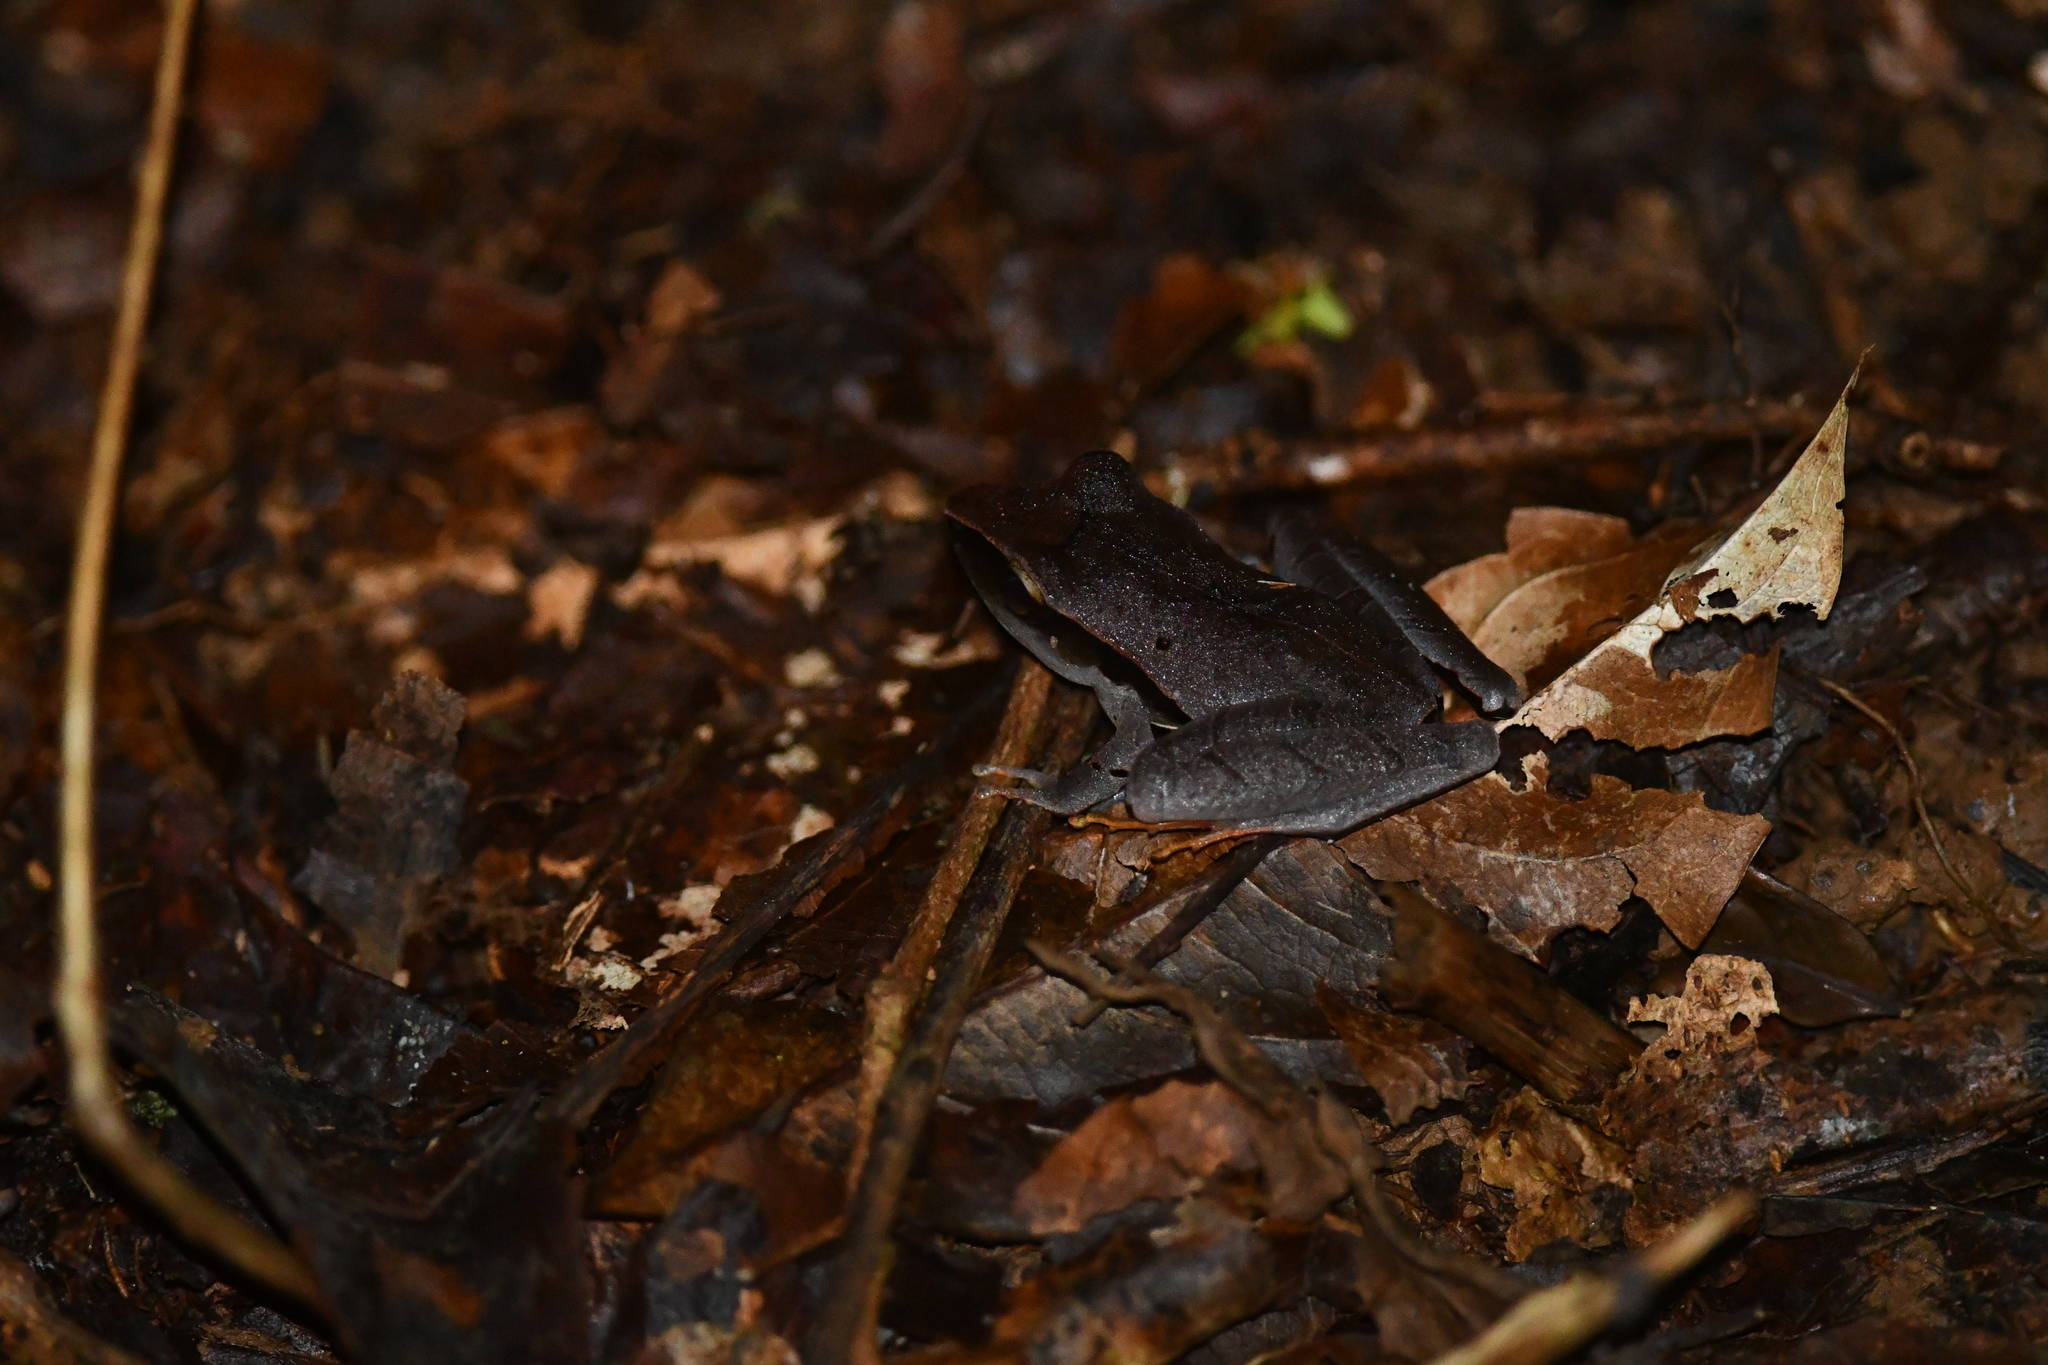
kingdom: Animalia
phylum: Chordata
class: Amphibia
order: Anura
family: Craugastoridae
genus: Craugastor
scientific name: Craugastor mimus
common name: Tilaran robber frog
